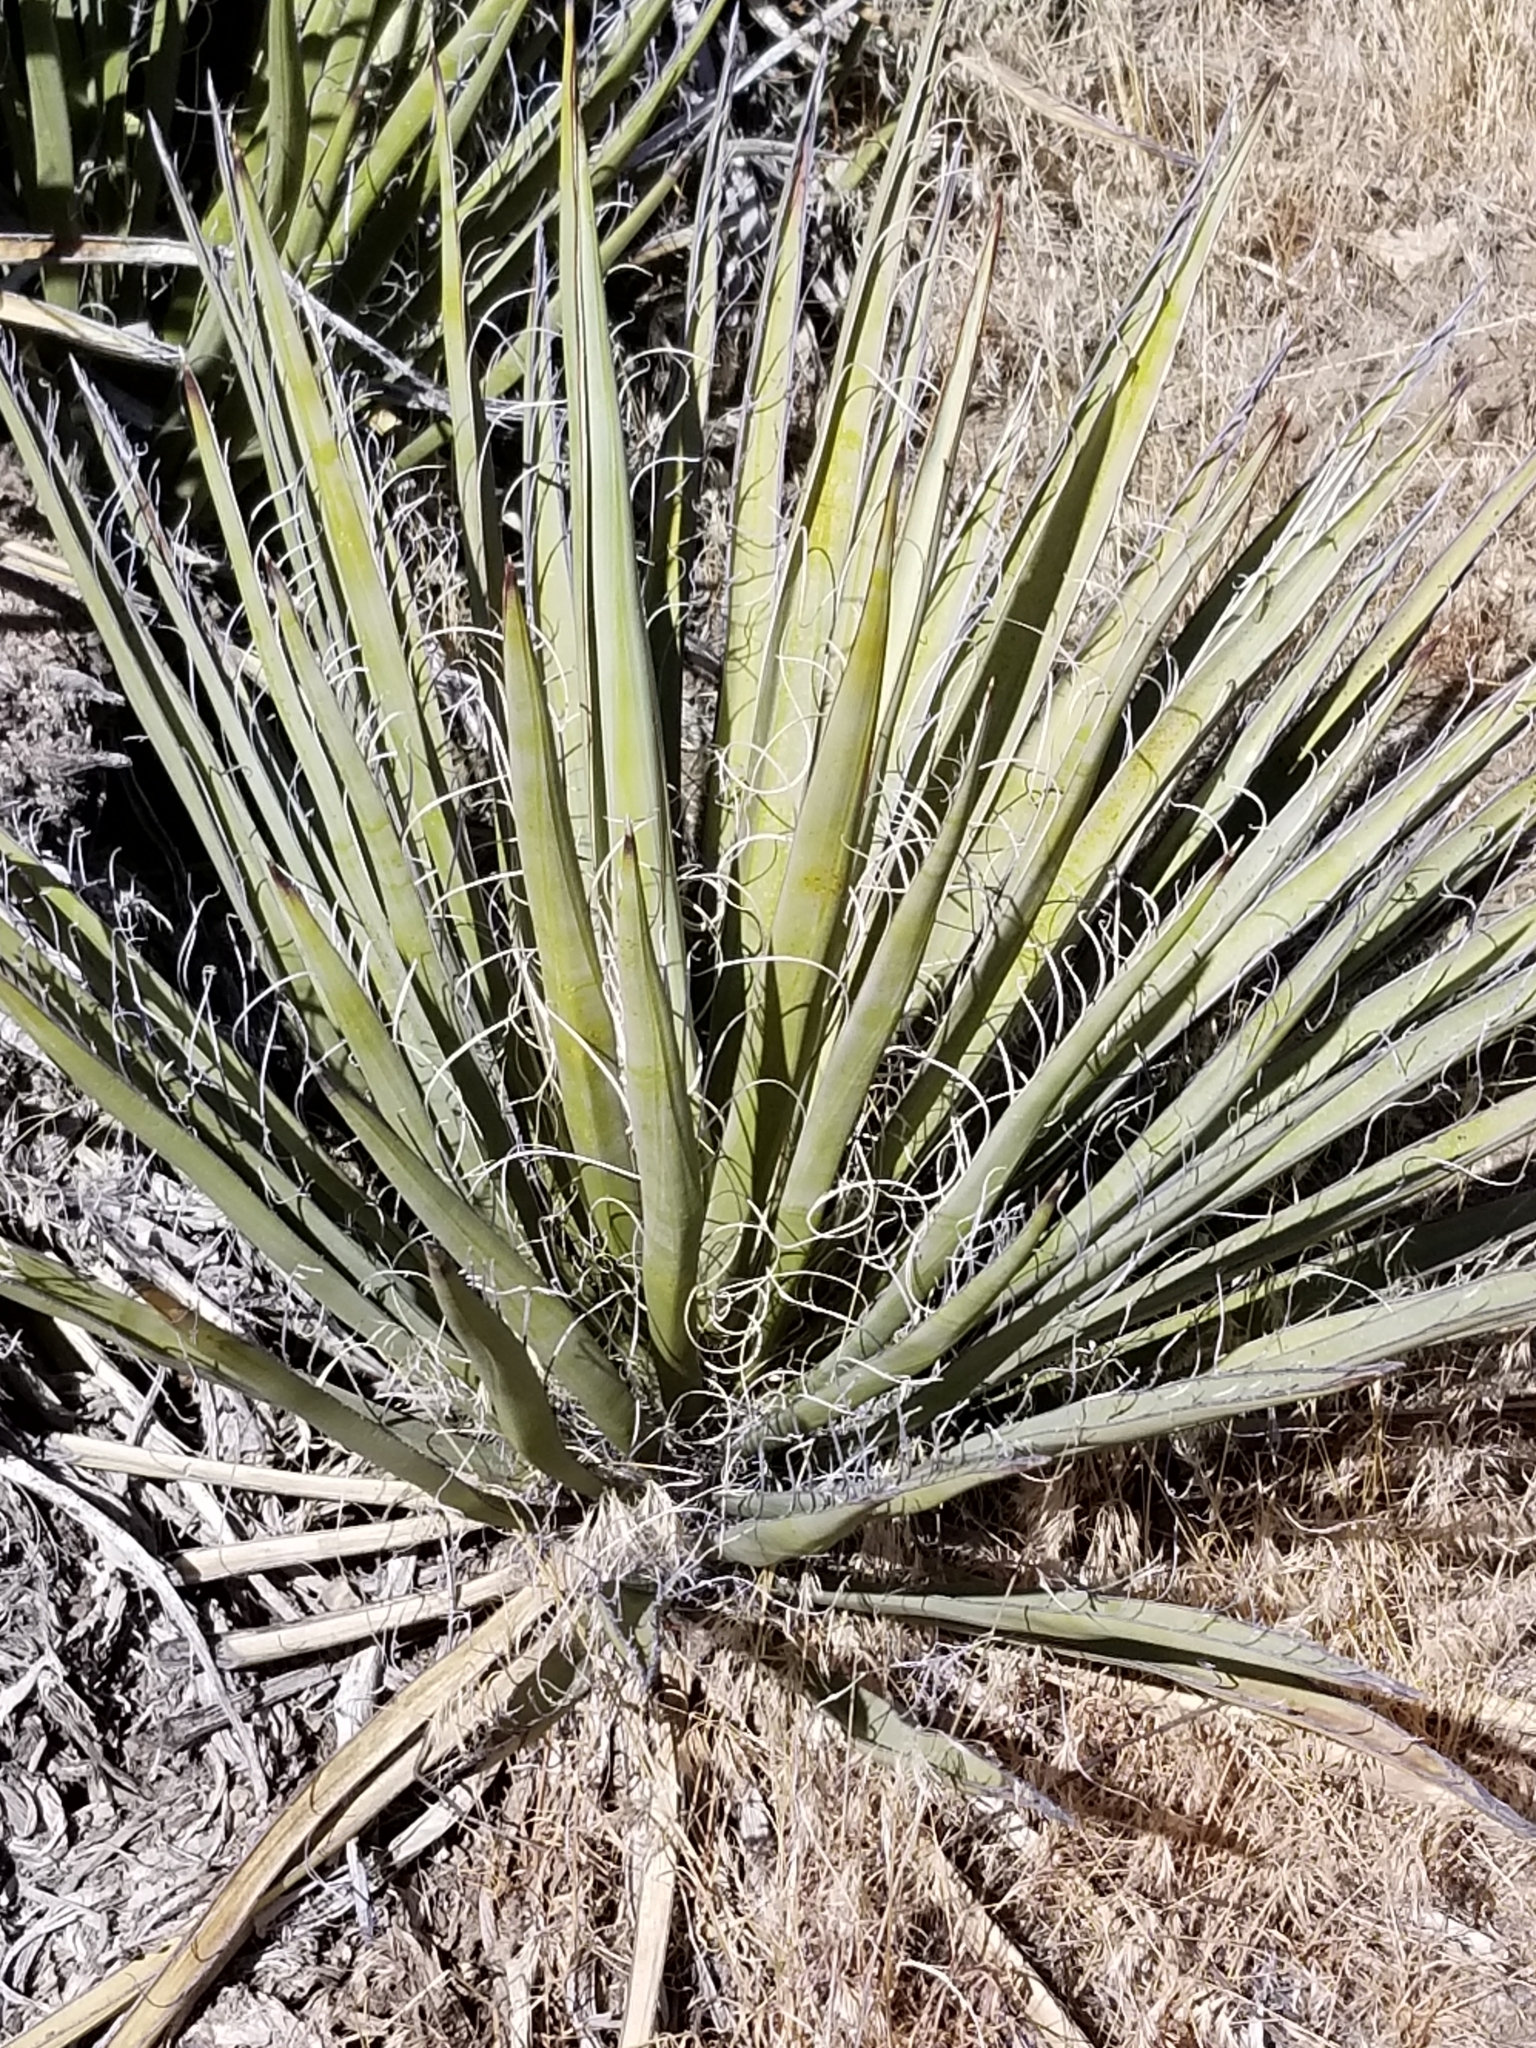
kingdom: Plantae
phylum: Tracheophyta
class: Liliopsida
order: Asparagales
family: Asparagaceae
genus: Yucca
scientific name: Yucca schidigera
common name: Mojave yucca
